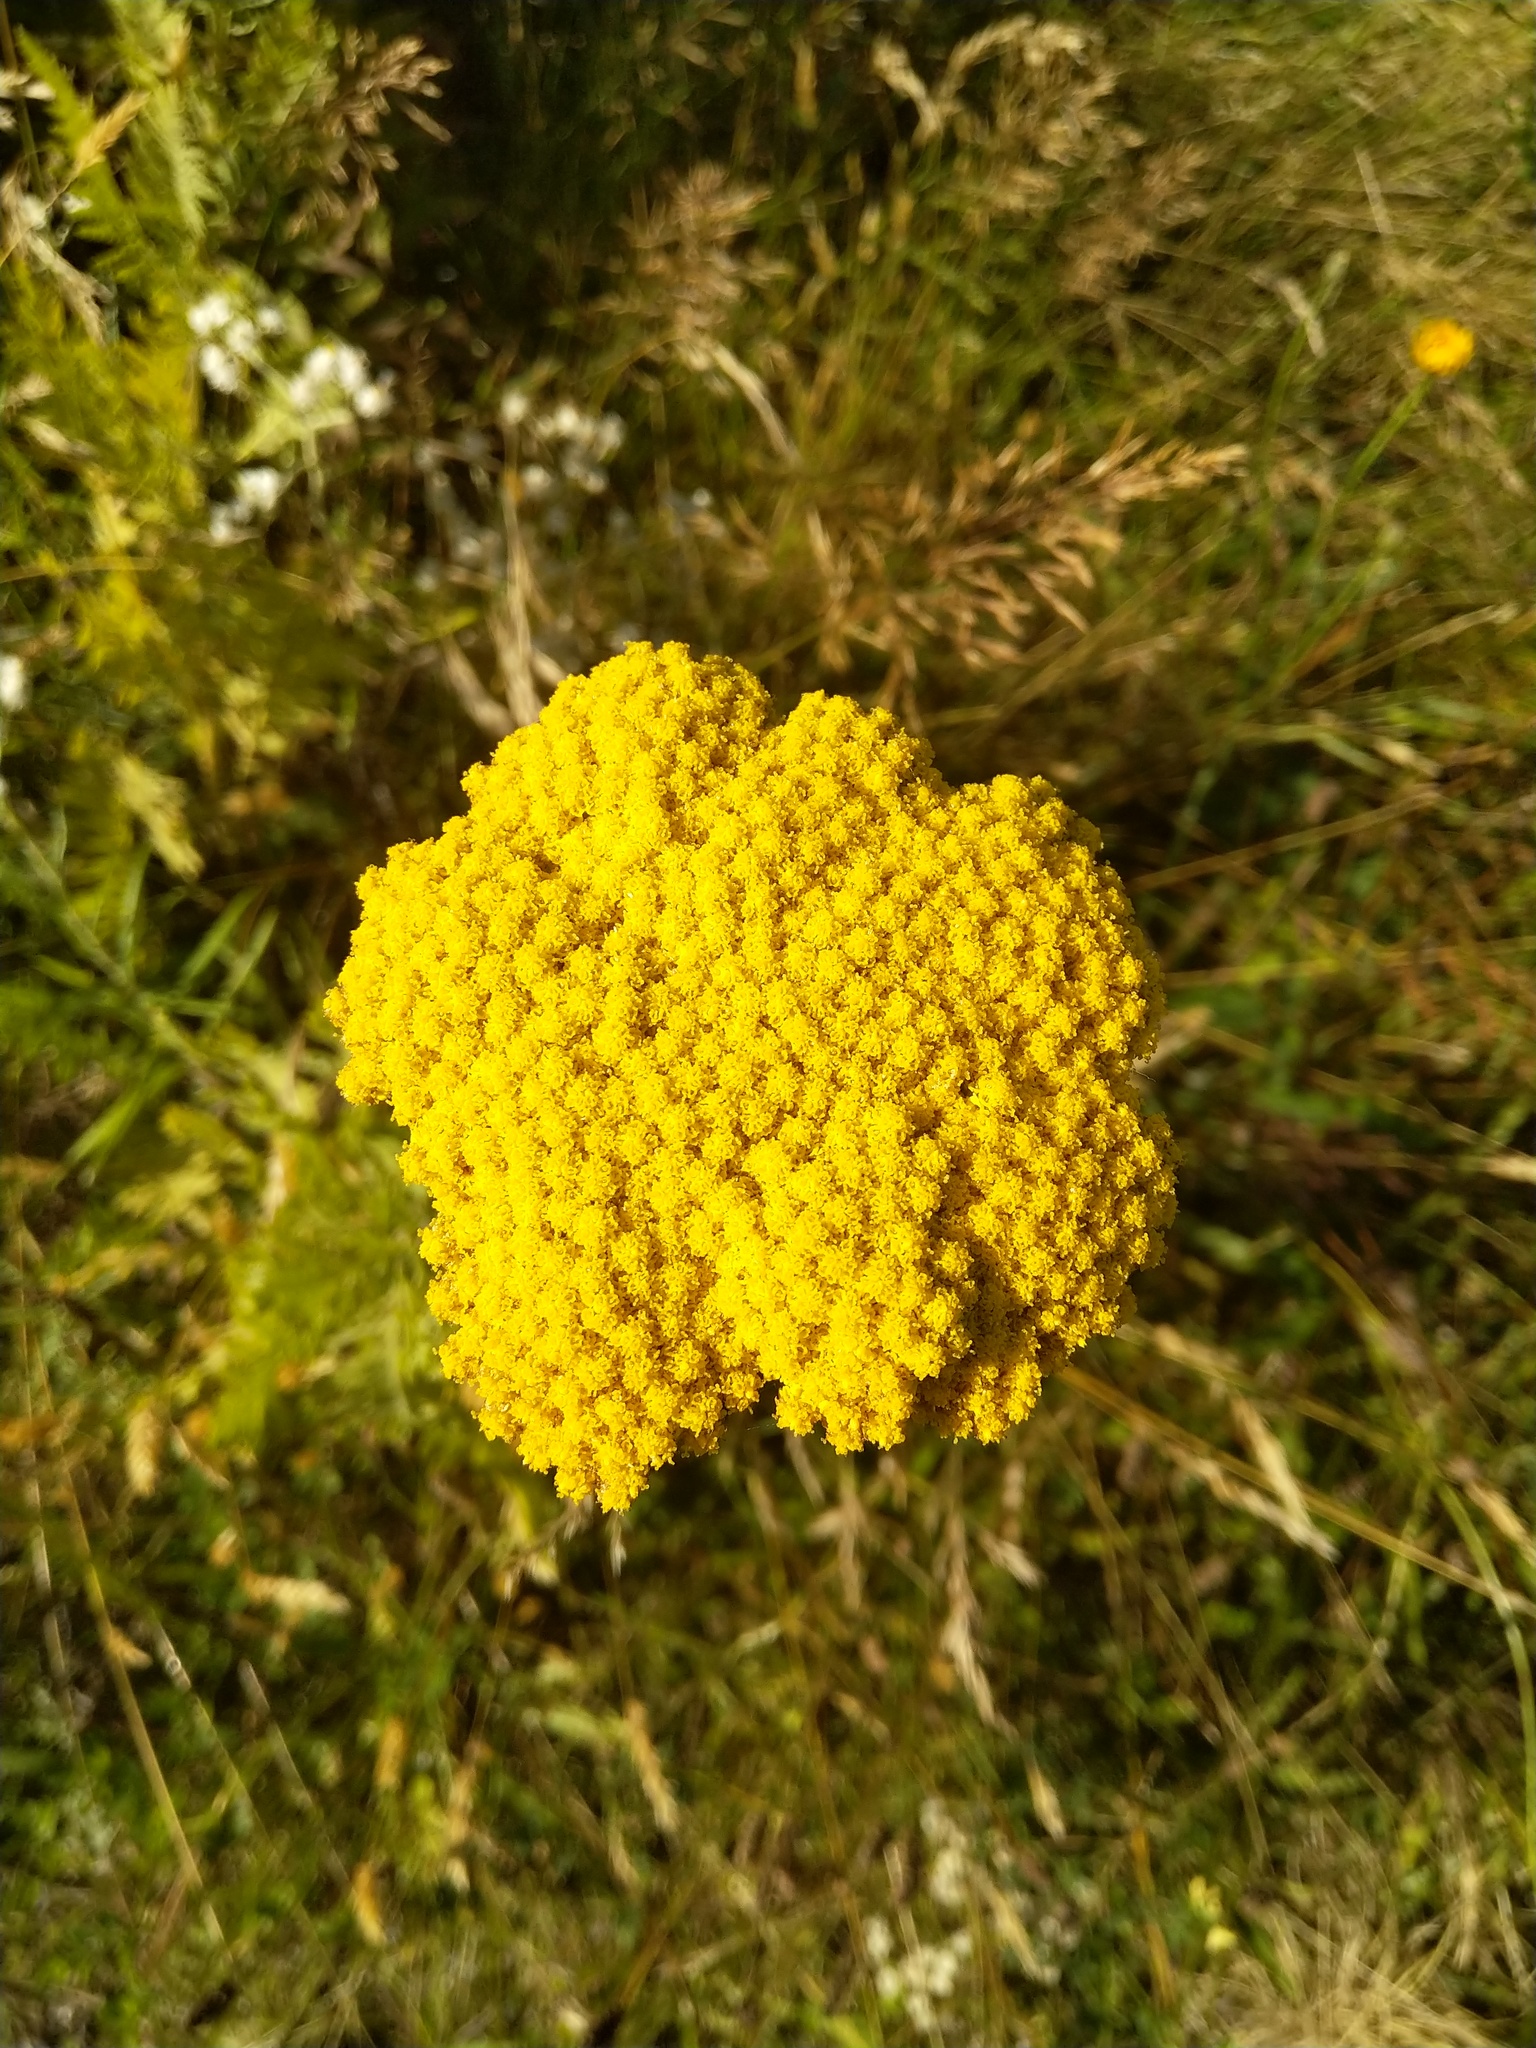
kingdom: Plantae
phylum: Tracheophyta
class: Magnoliopsida
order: Asterales
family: Asteraceae
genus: Achillea
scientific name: Achillea filipendulina
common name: Fernleaf yarrow
